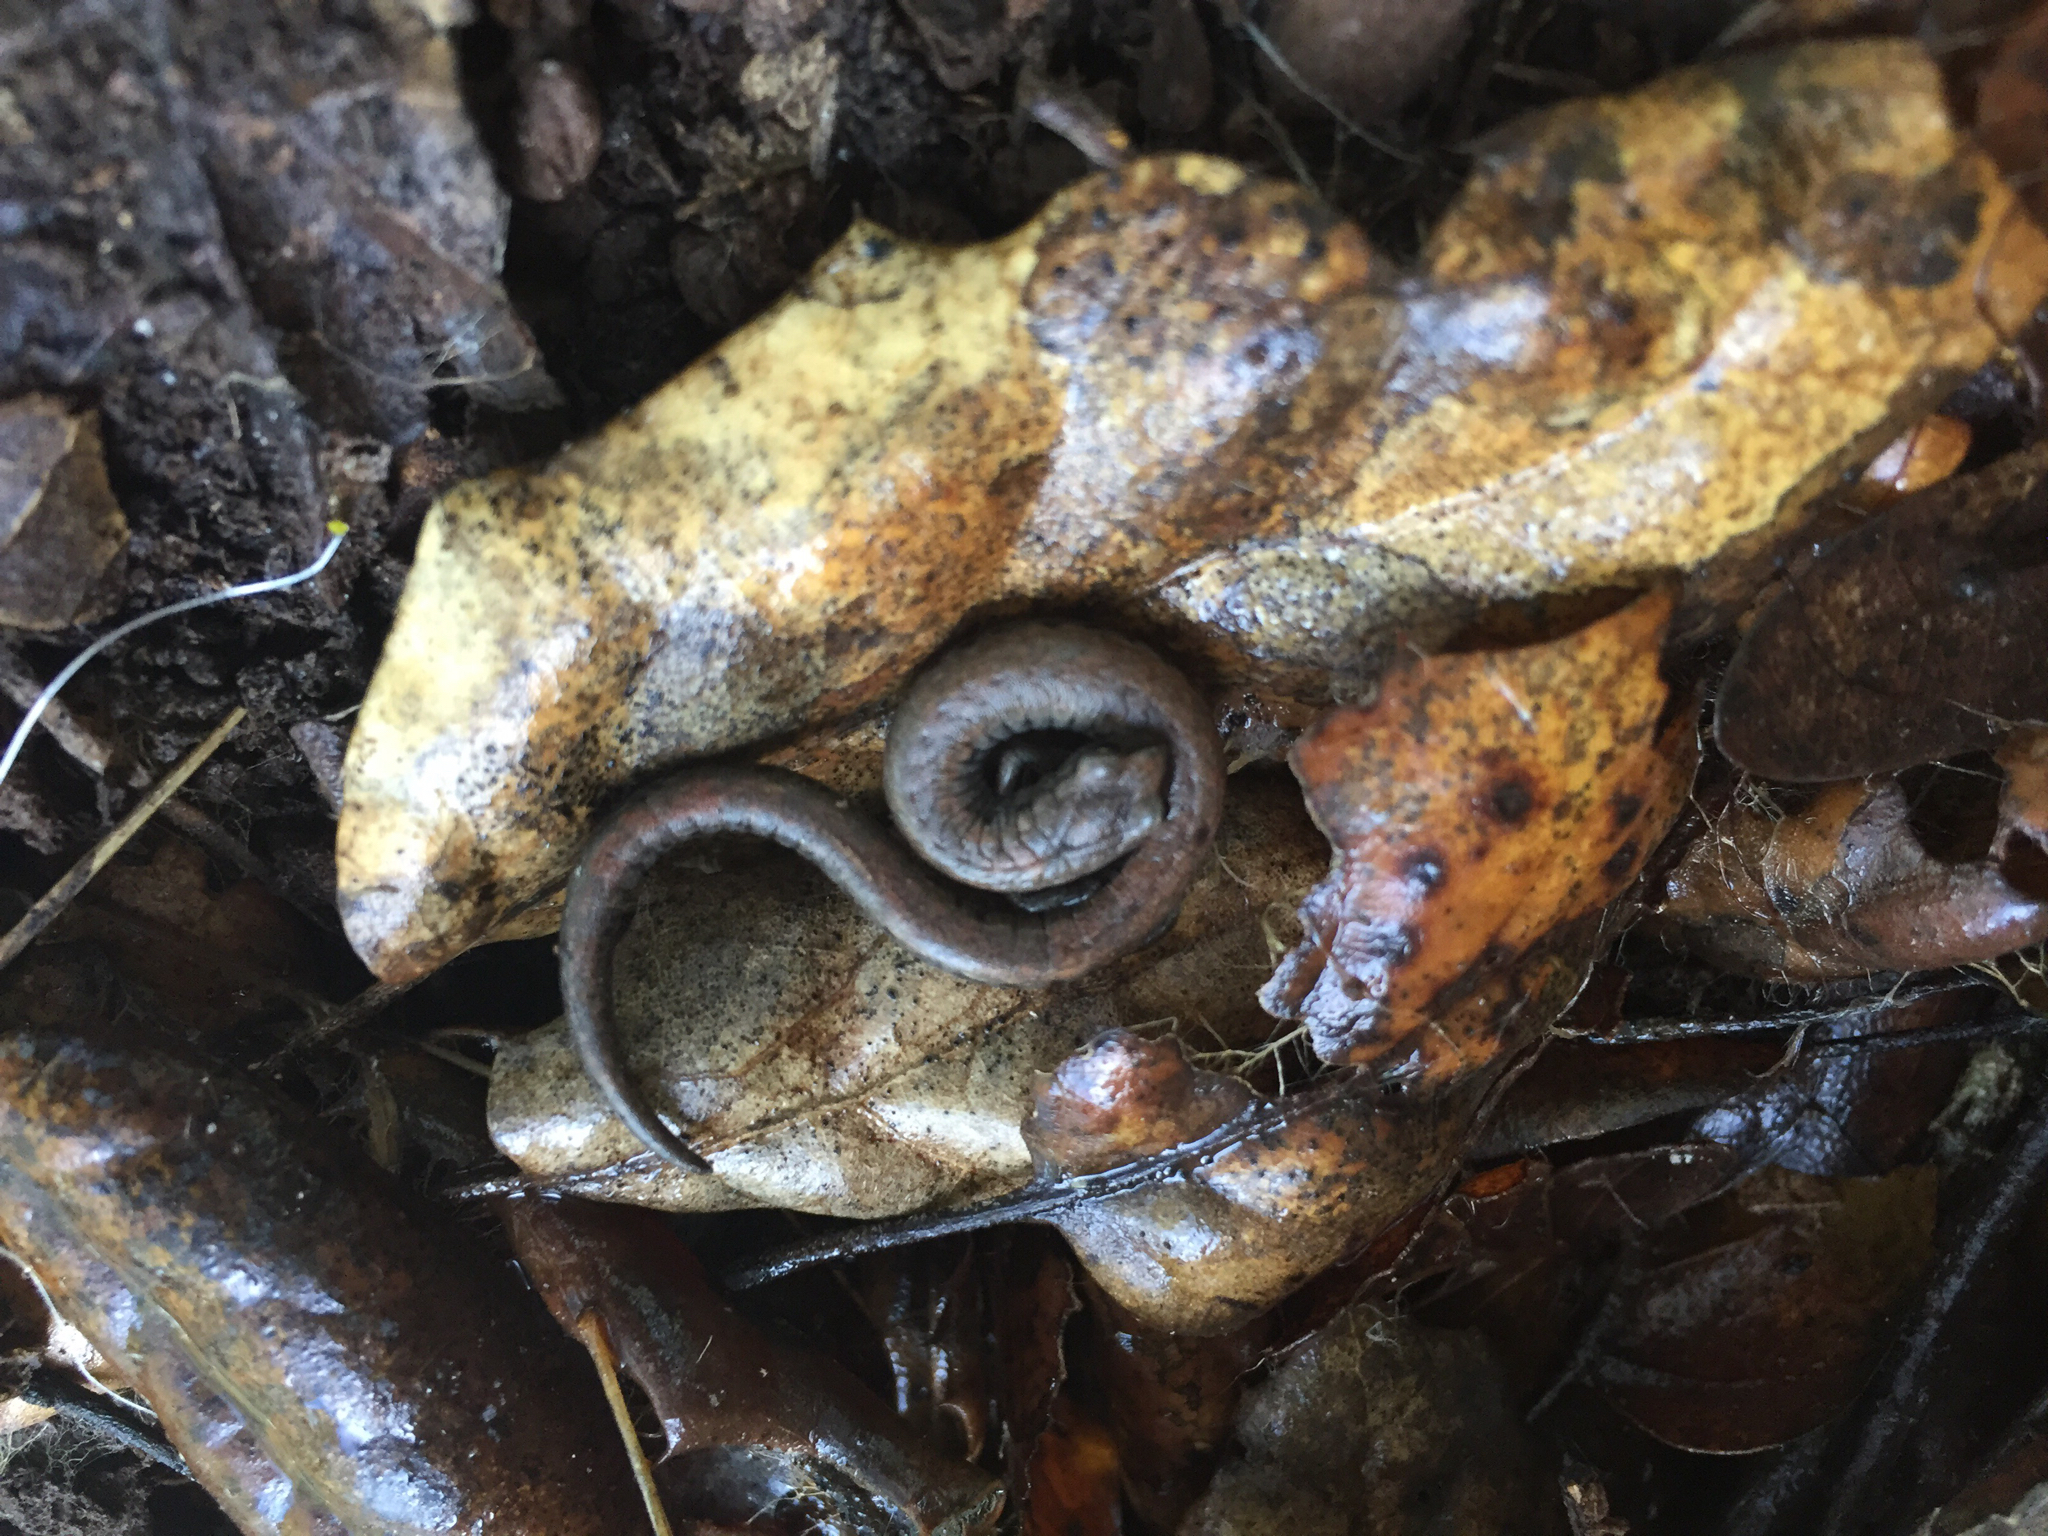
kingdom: Animalia
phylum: Chordata
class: Amphibia
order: Caudata
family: Plethodontidae
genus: Batrachoseps
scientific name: Batrachoseps attenuatus
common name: California slender salamander
